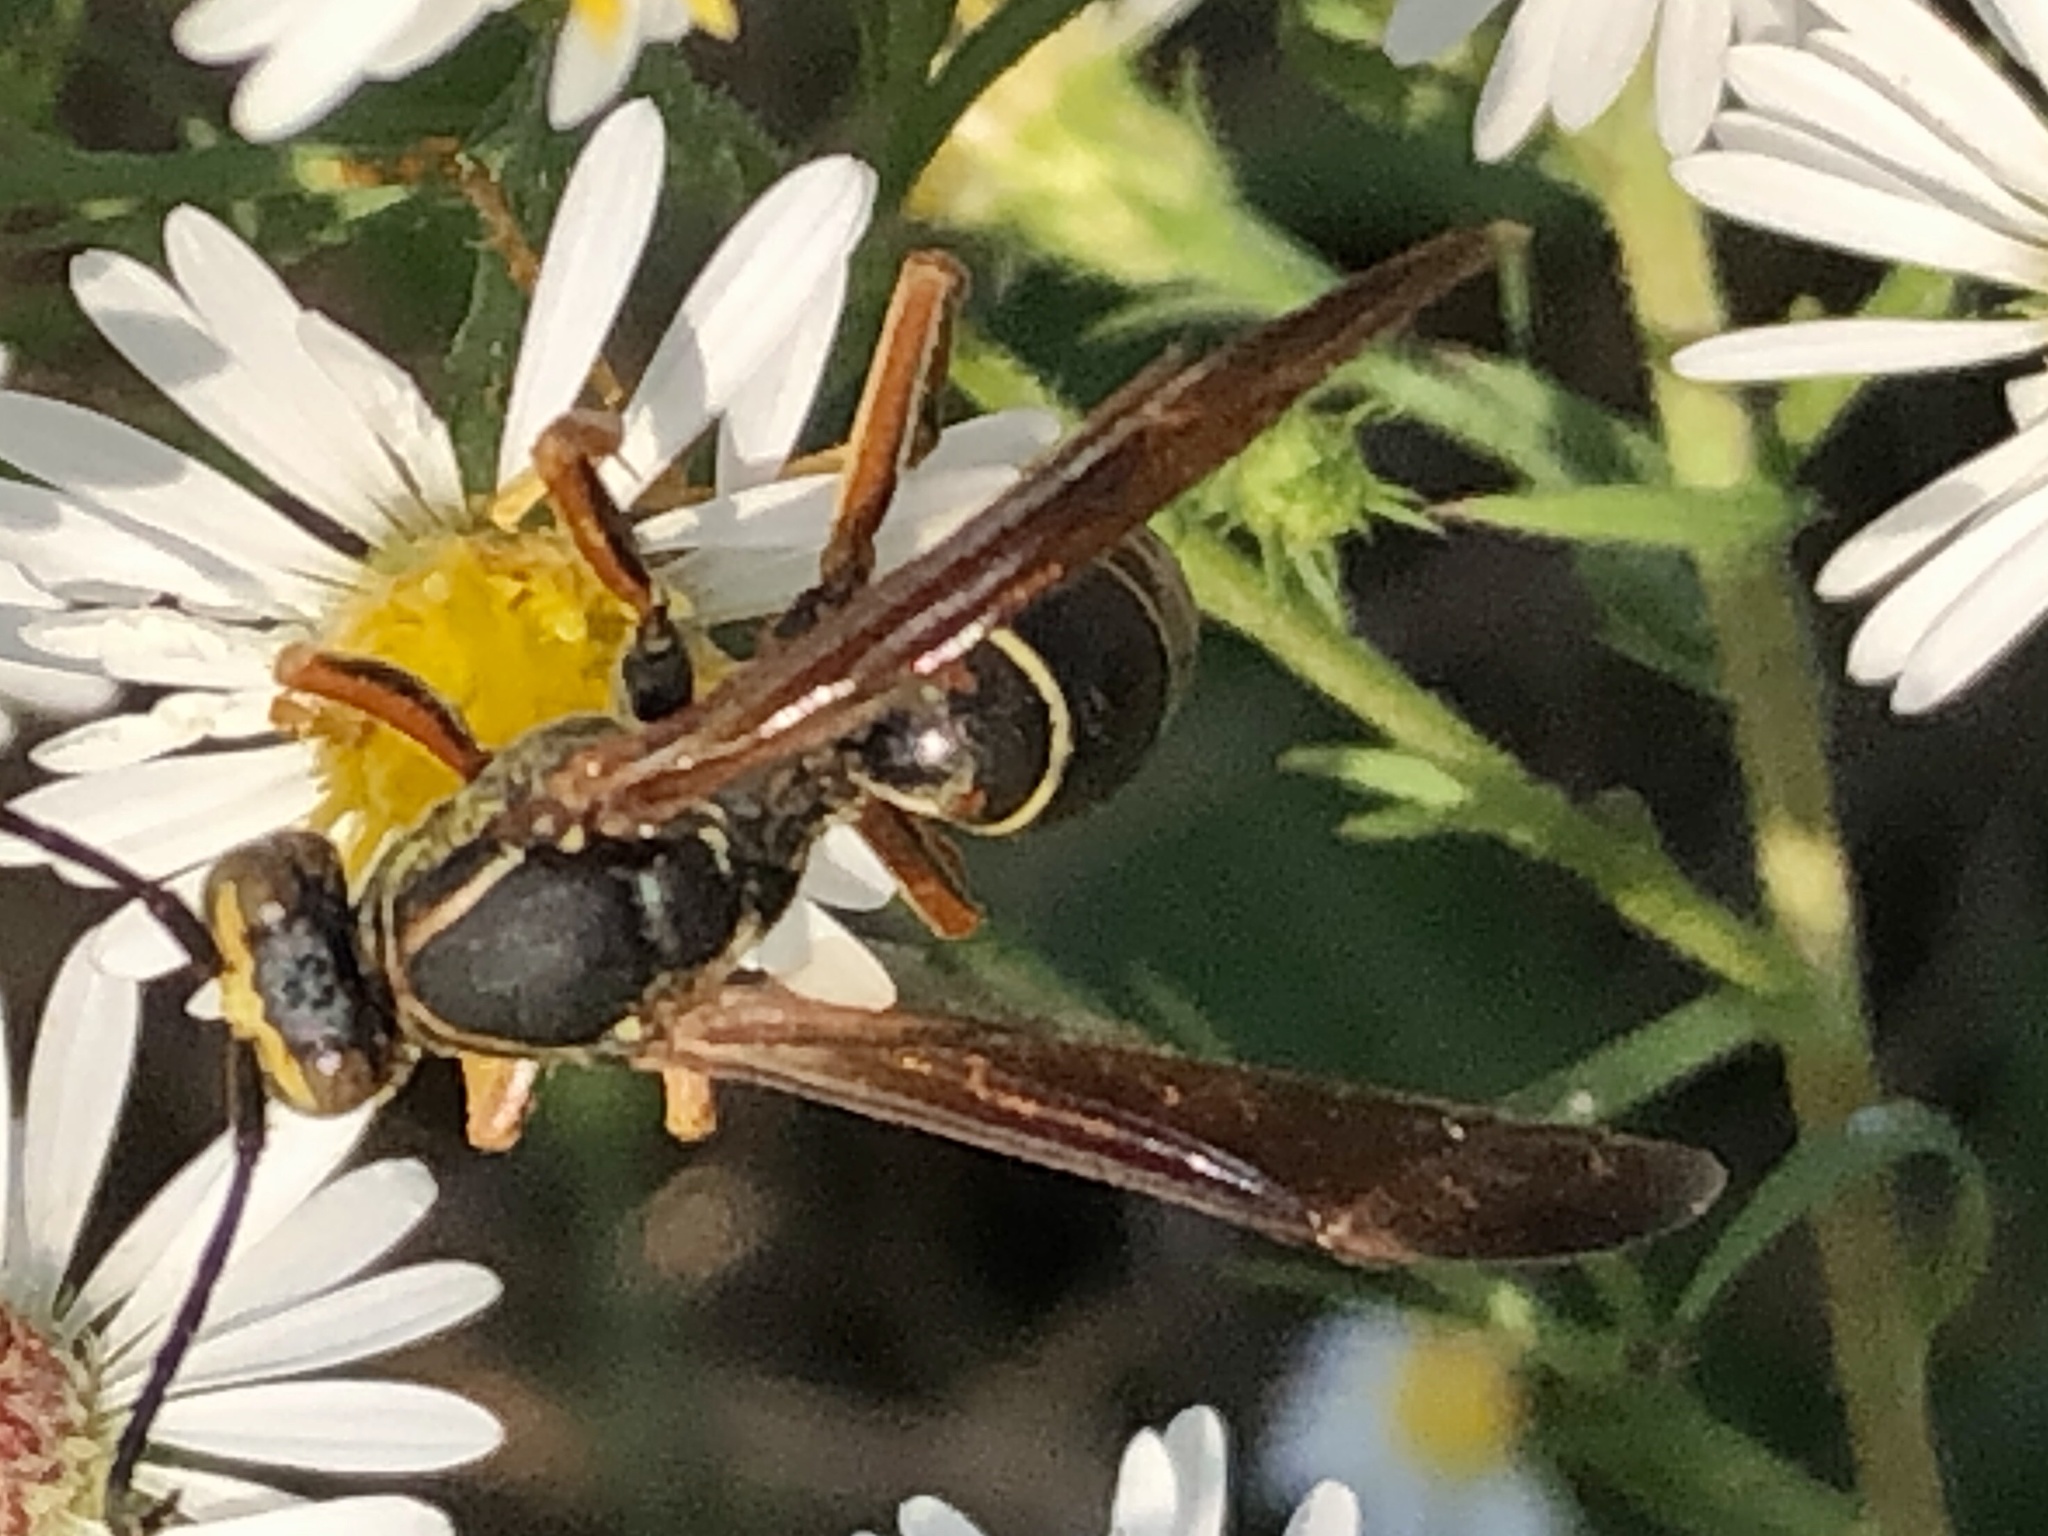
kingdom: Animalia
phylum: Arthropoda
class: Insecta
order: Hymenoptera
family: Eumenidae
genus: Polistes
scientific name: Polistes fuscatus
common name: Dark paper wasp
